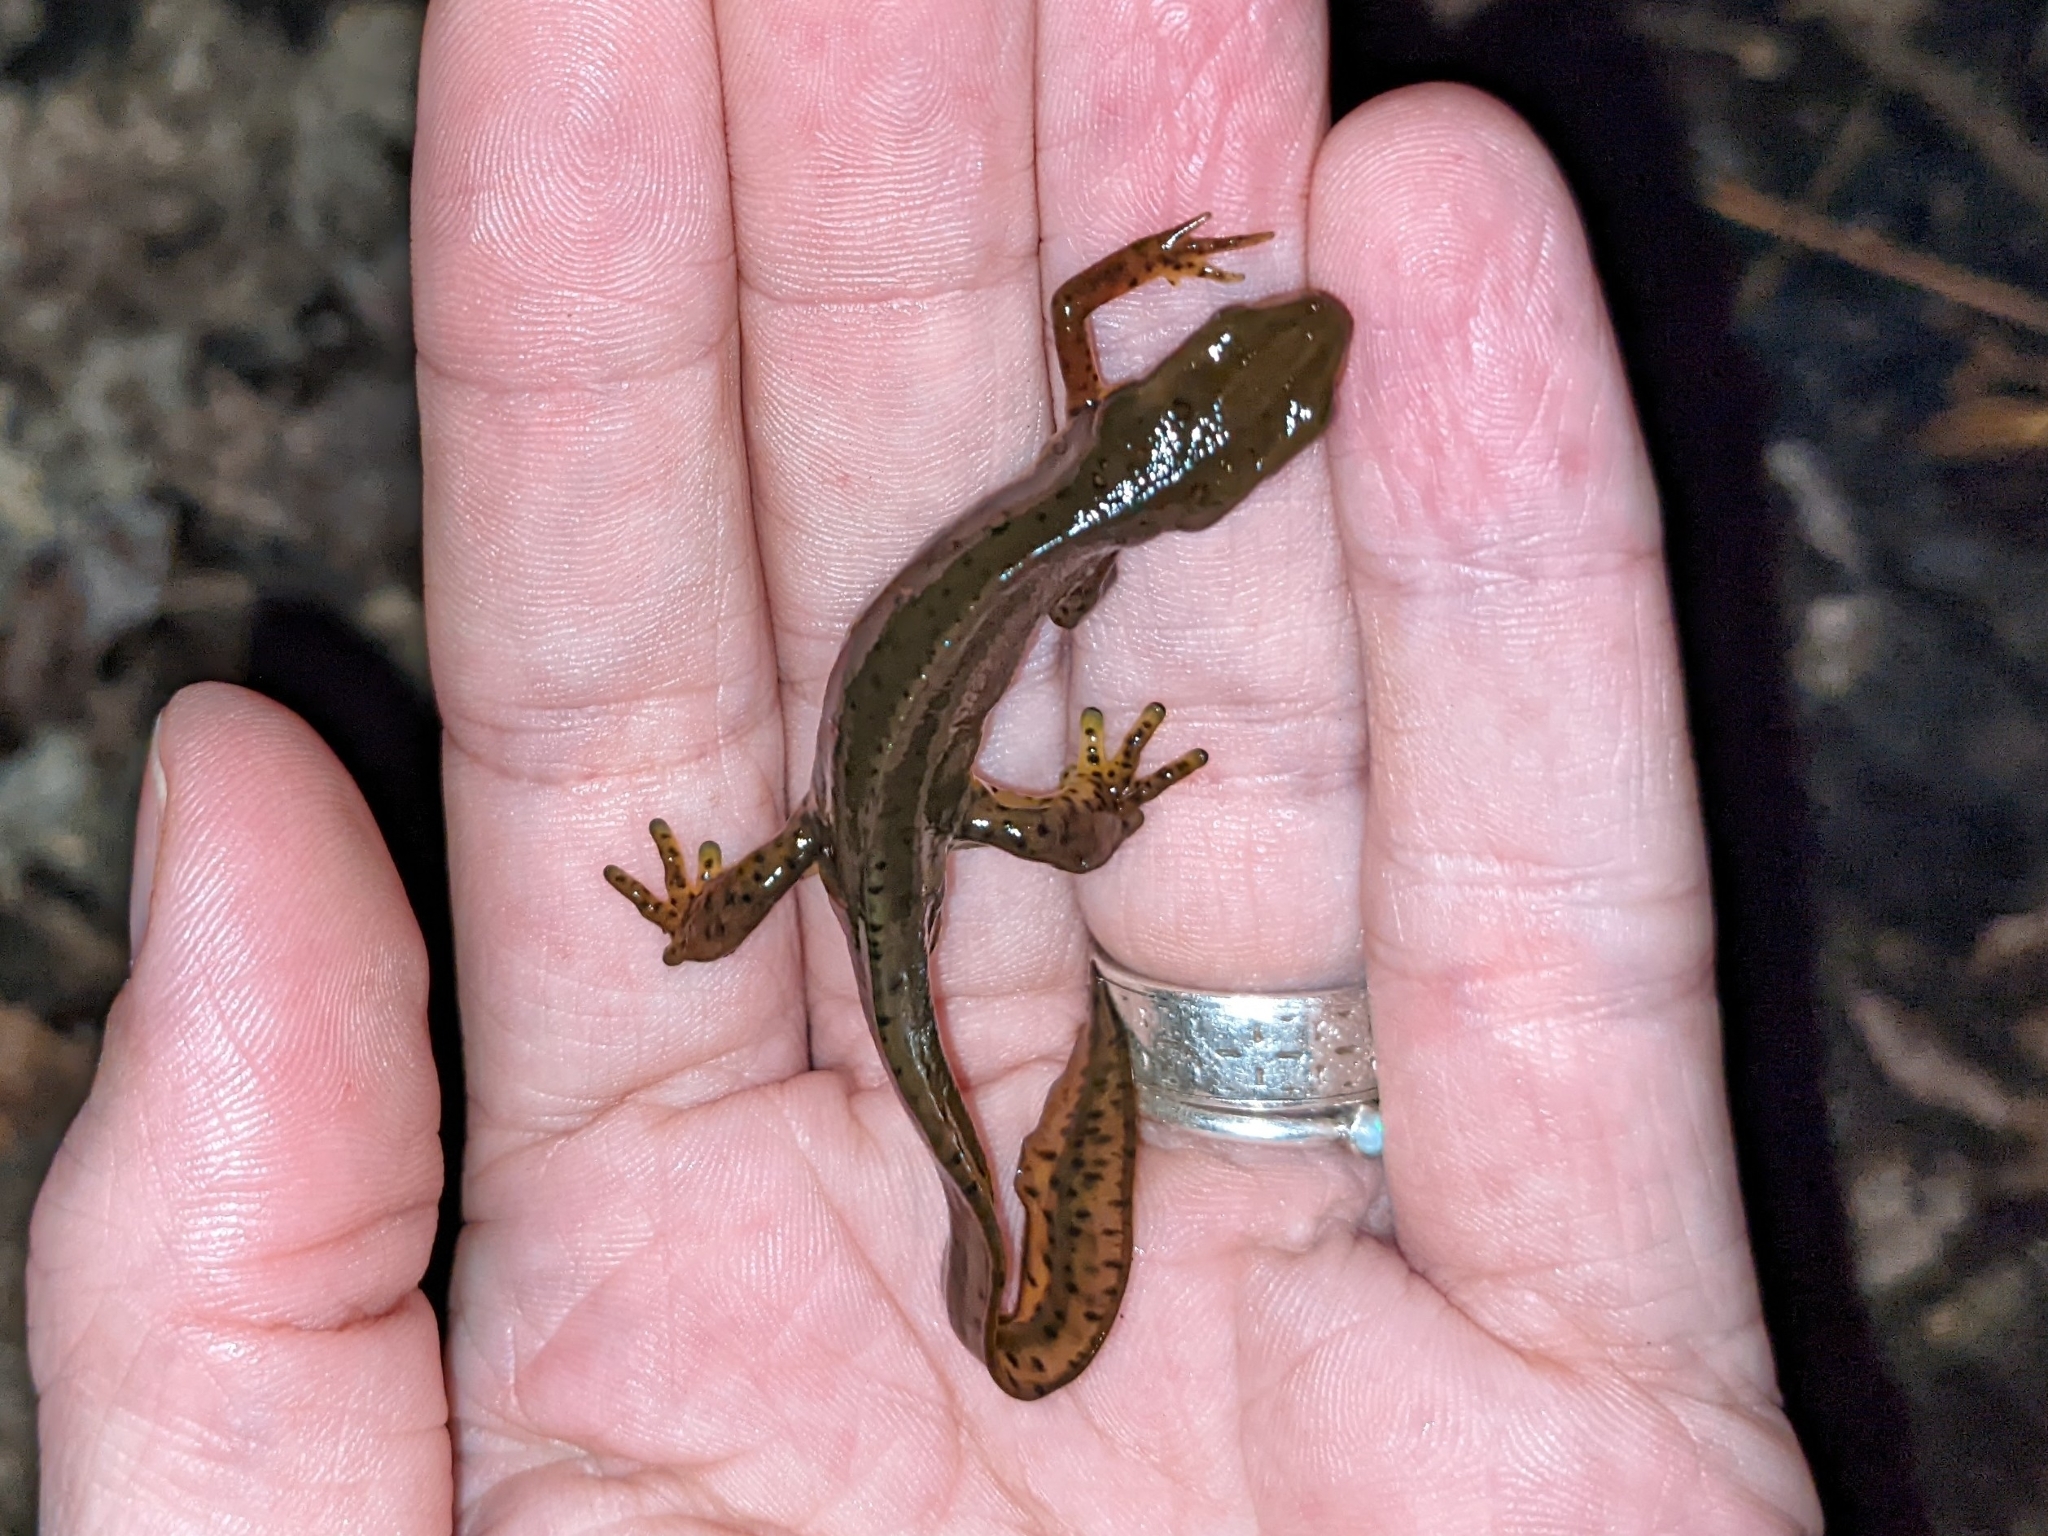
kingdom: Animalia
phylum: Chordata
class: Amphibia
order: Caudata
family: Salamandridae
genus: Notophthalmus
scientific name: Notophthalmus viridescens
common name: Eastern newt
